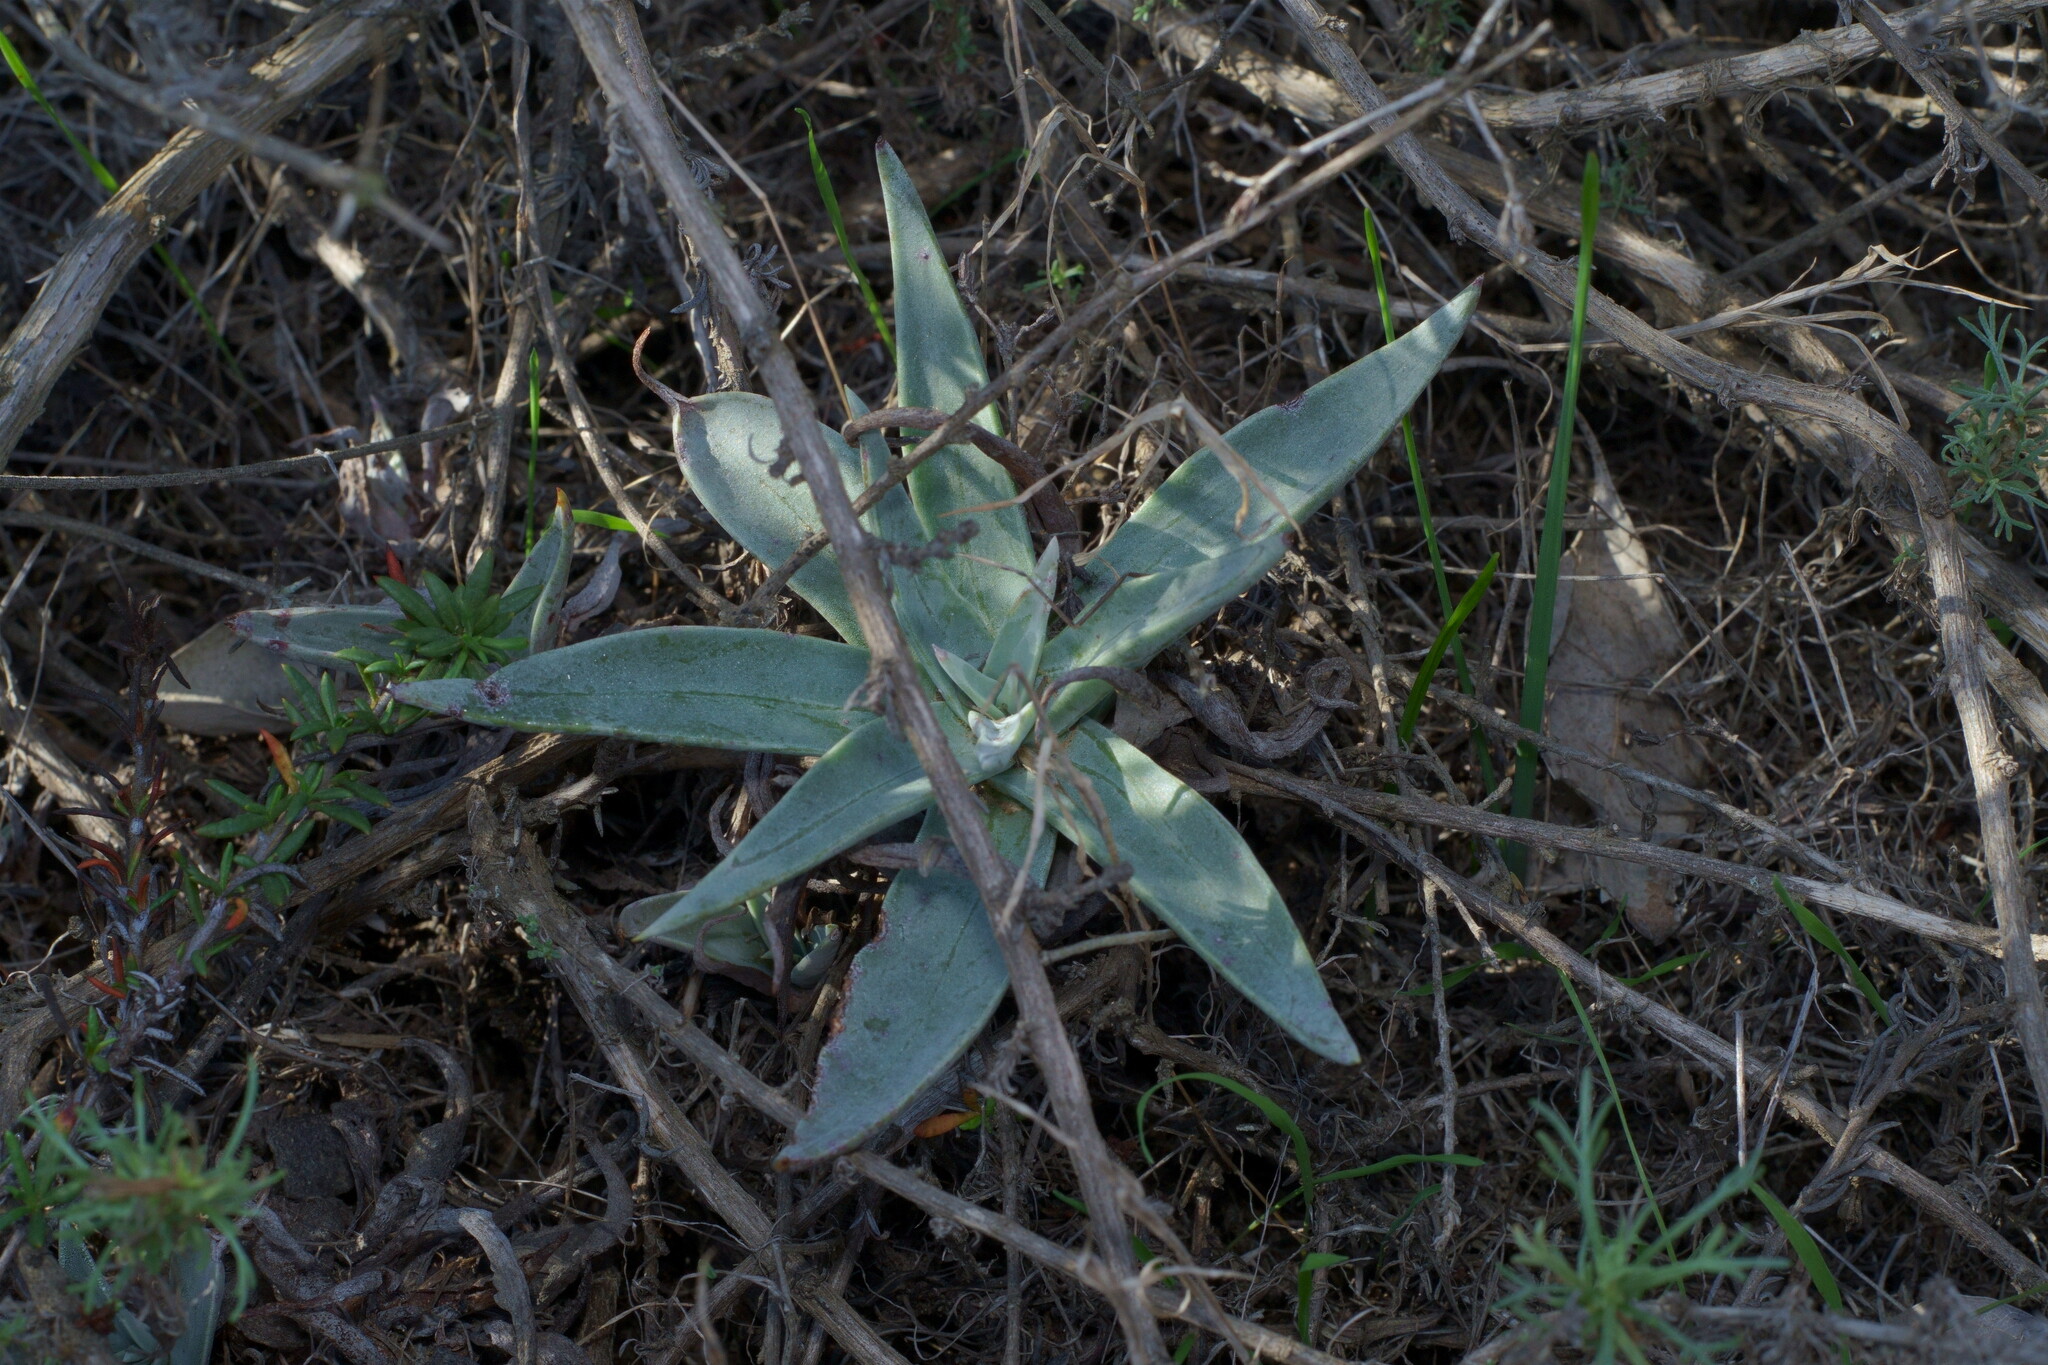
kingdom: Plantae
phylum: Tracheophyta
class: Magnoliopsida
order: Saxifragales
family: Crassulaceae
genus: Dudleya
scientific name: Dudleya lanceolata
